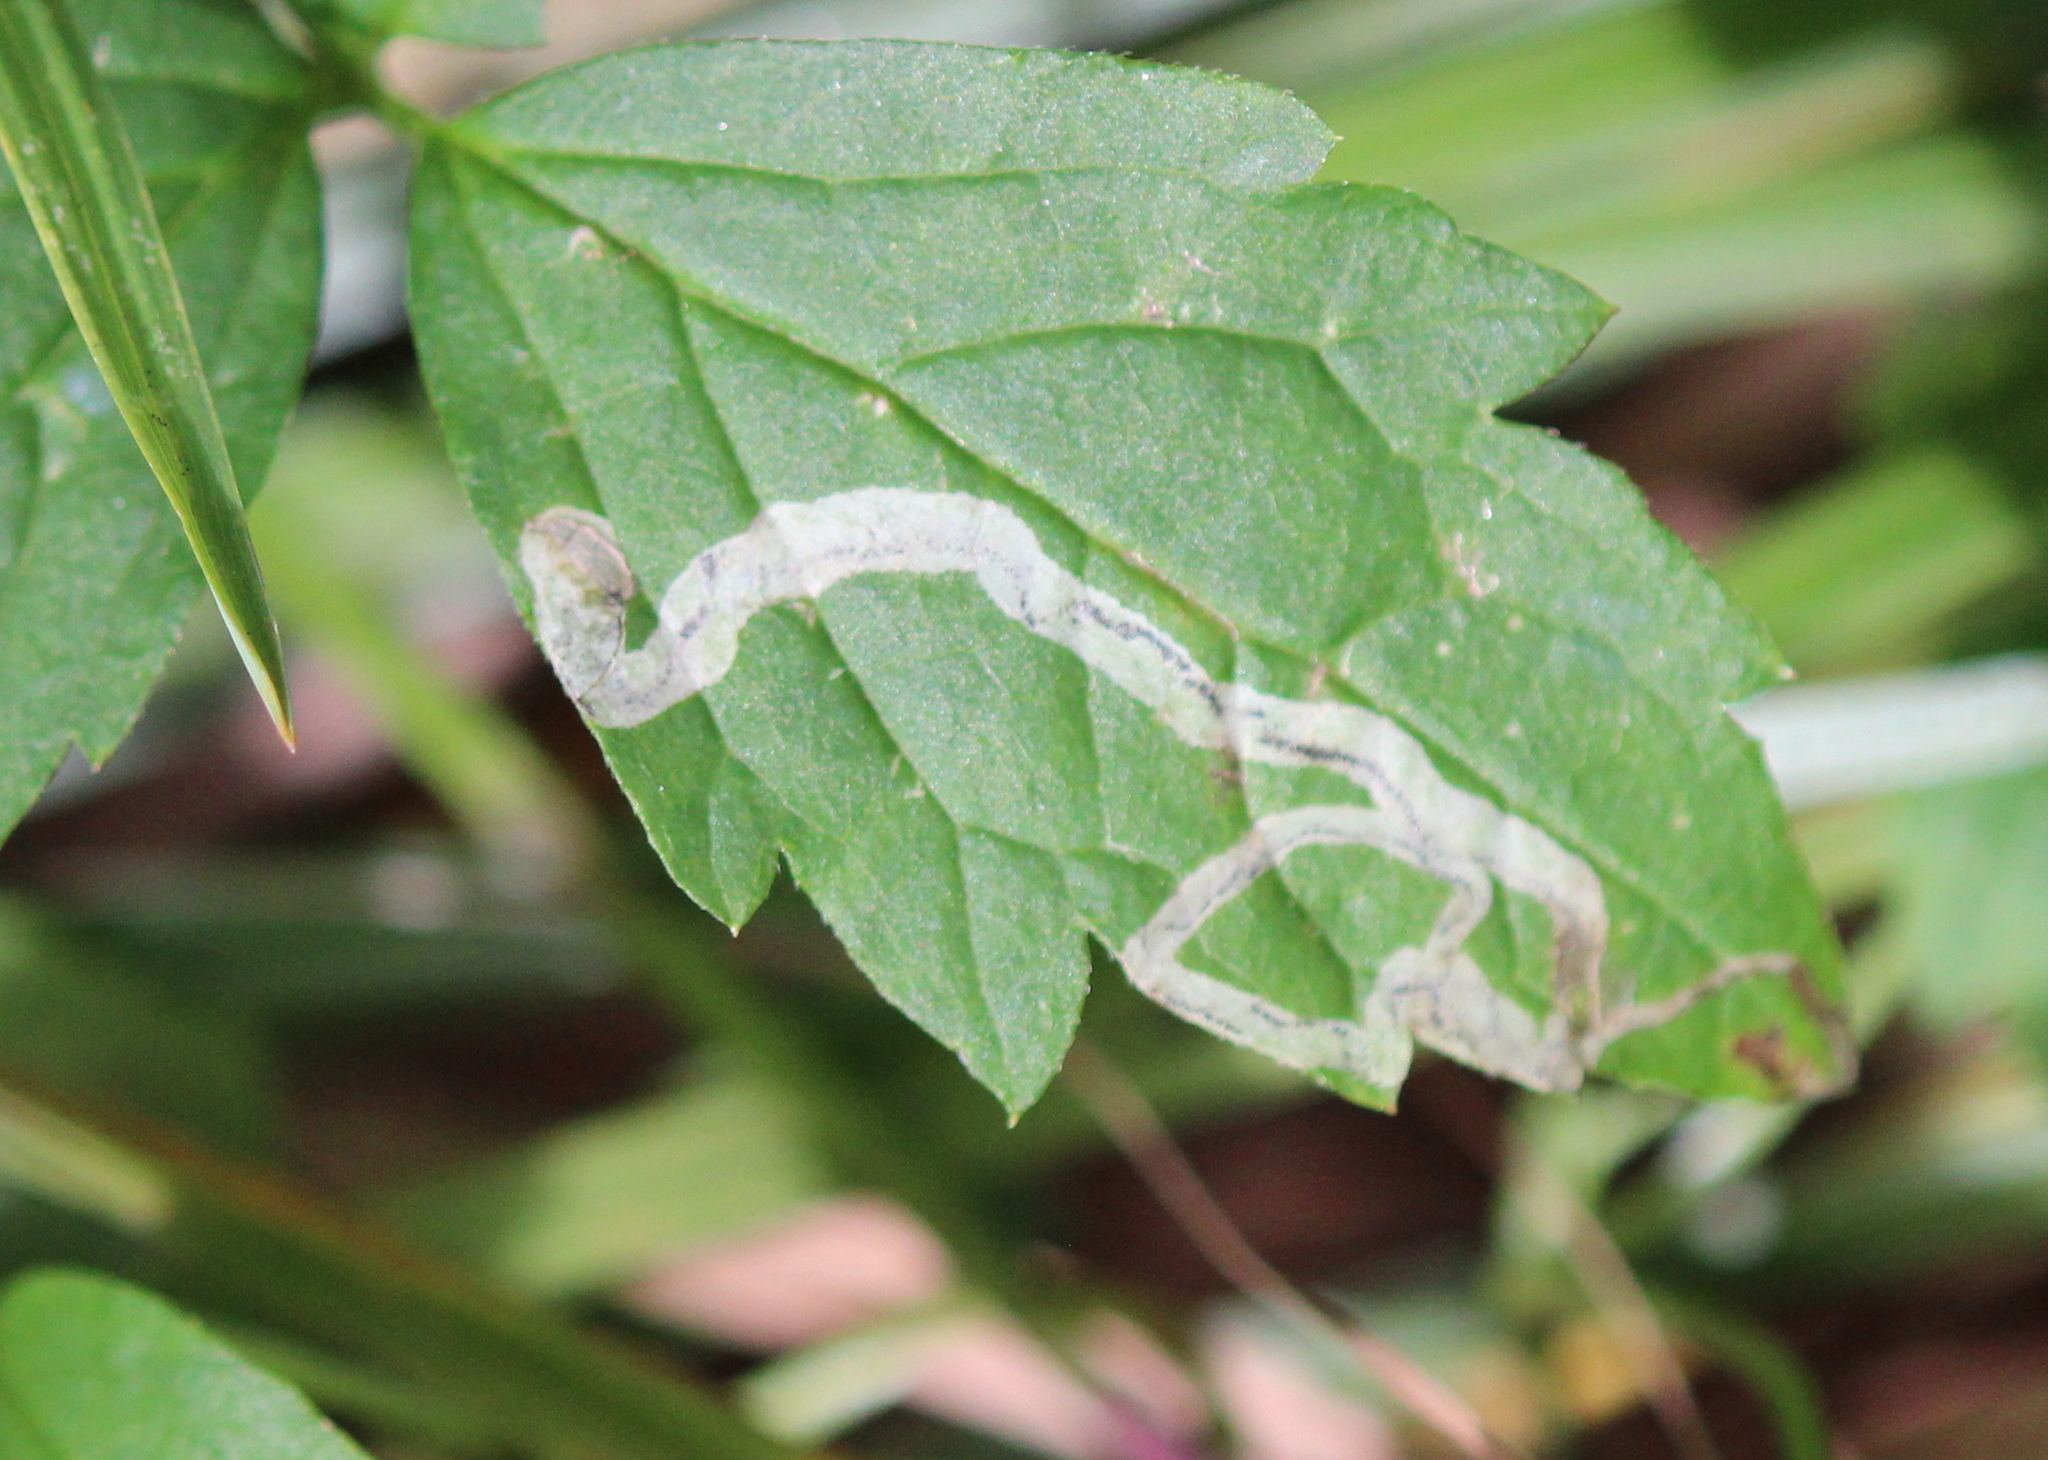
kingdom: Animalia
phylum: Arthropoda
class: Insecta
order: Diptera
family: Agromyzidae
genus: Phytomyza
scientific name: Phytomyza loewii
